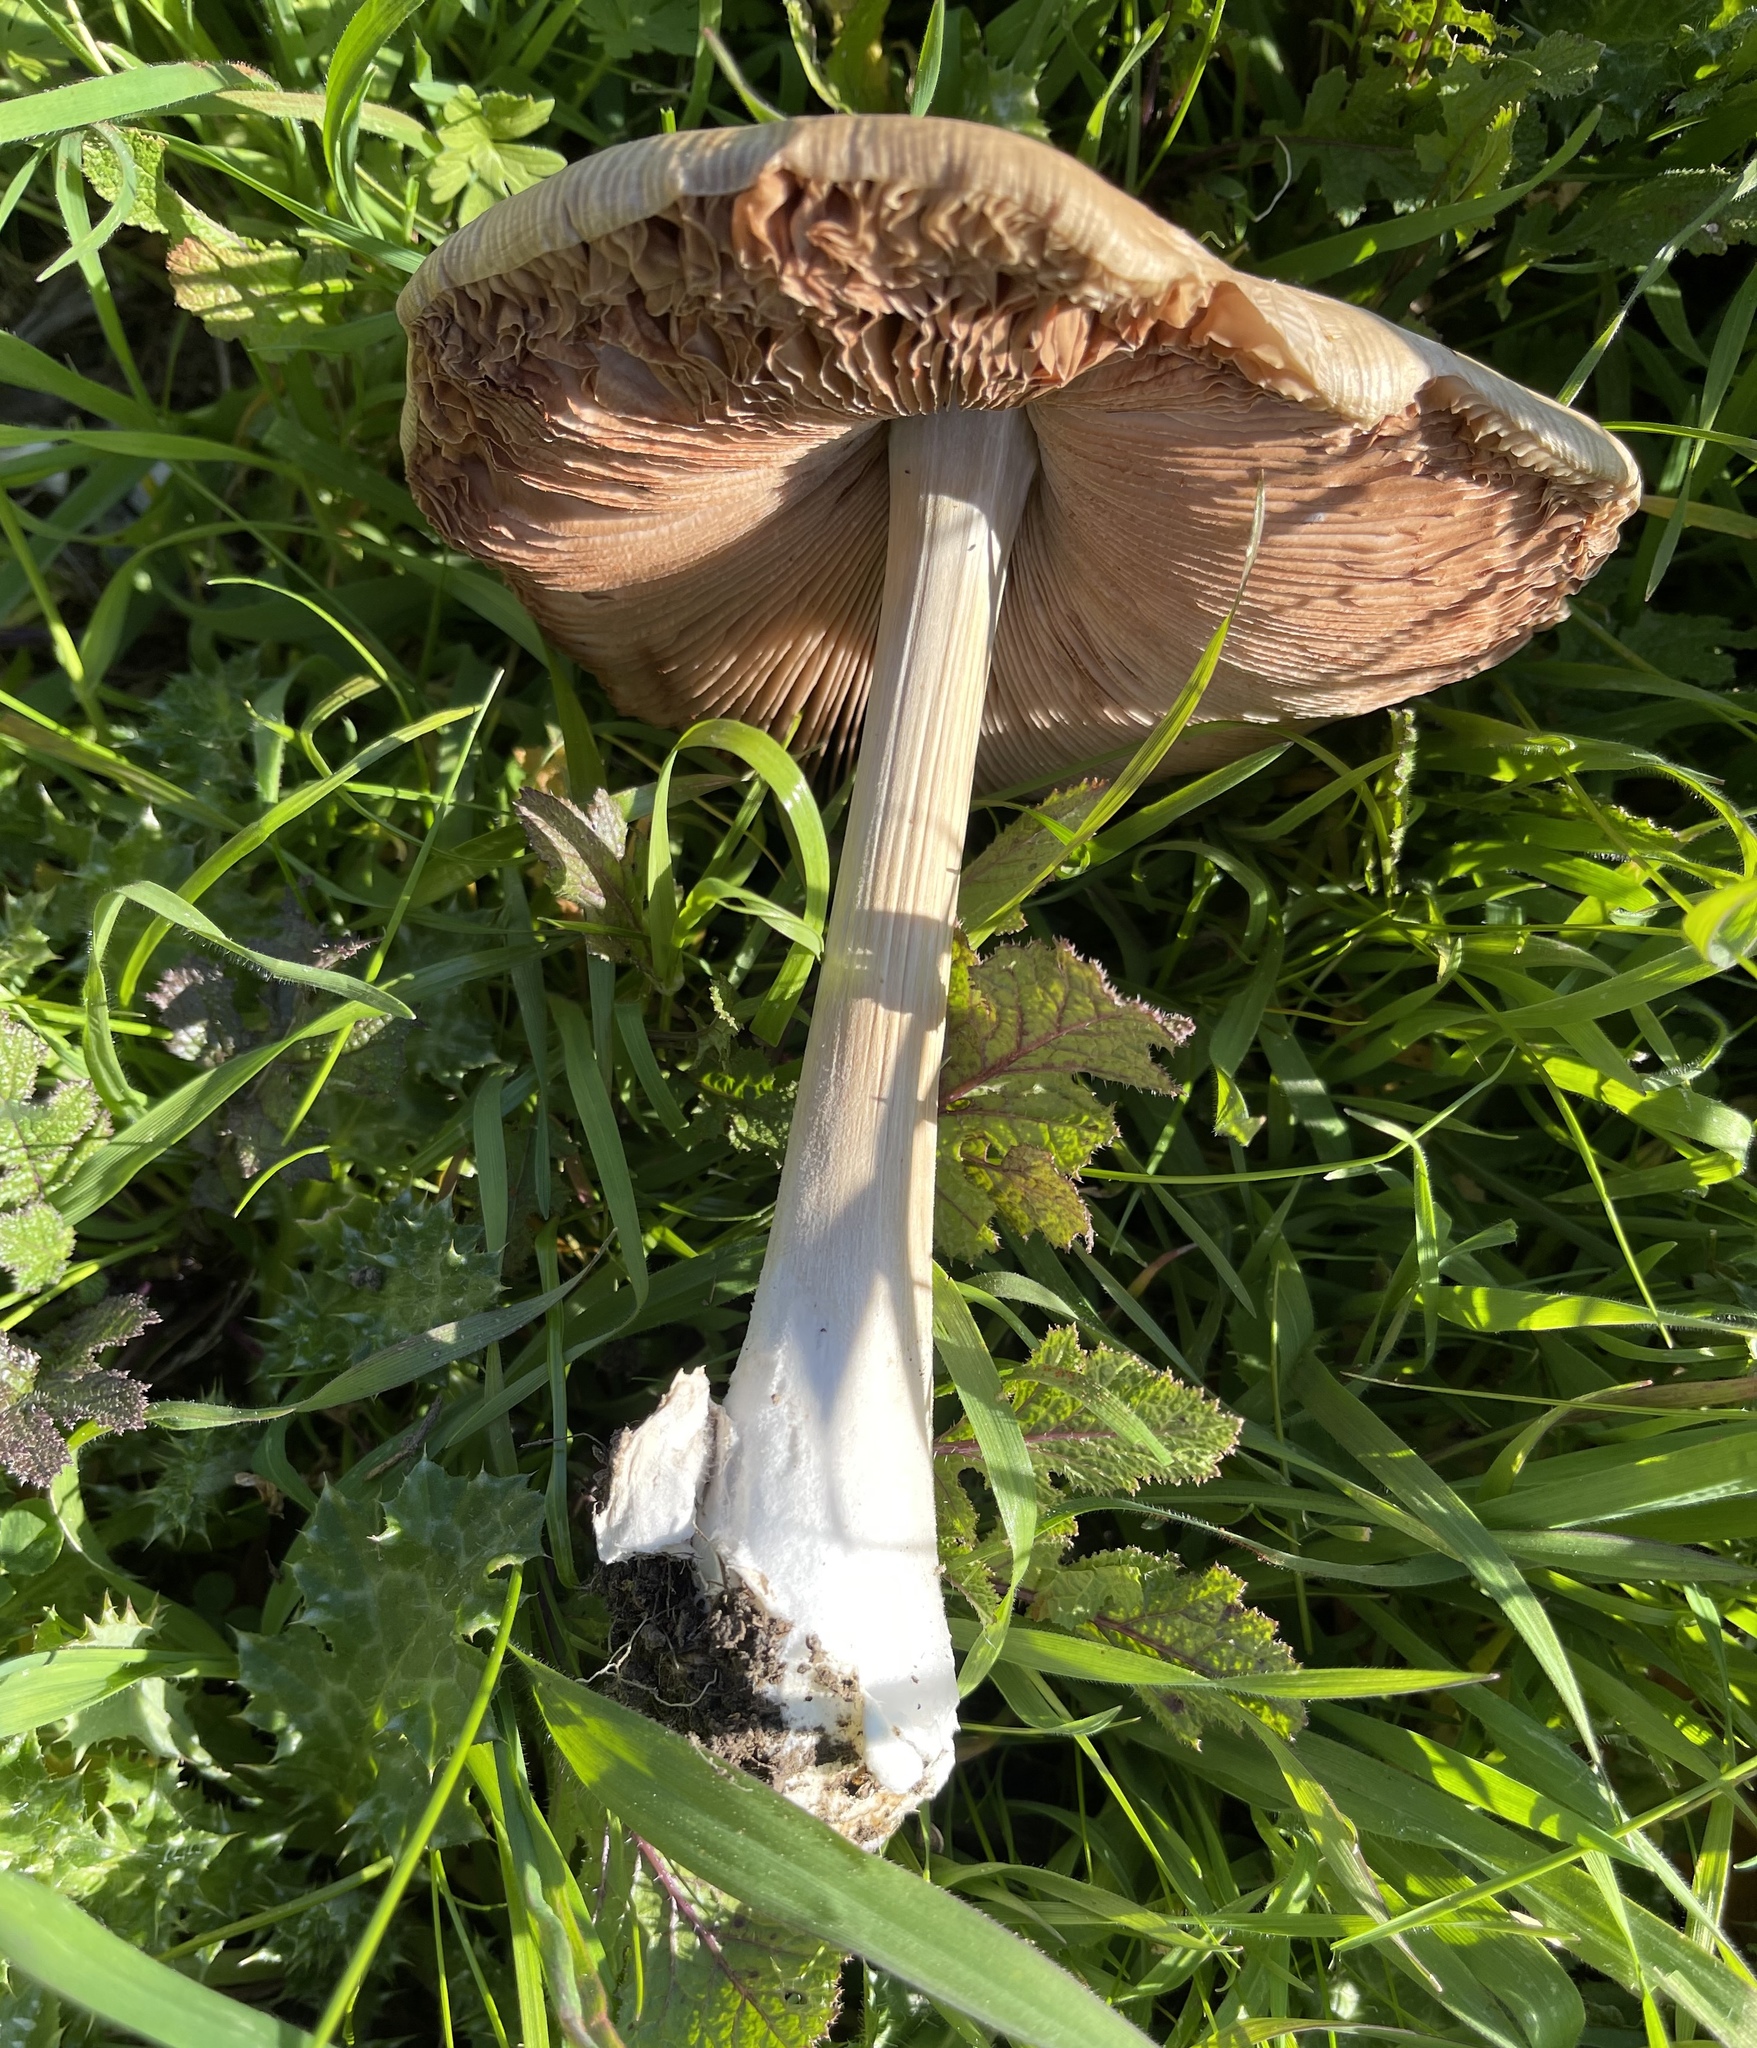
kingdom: Fungi
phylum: Basidiomycota
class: Agaricomycetes
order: Agaricales
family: Pluteaceae
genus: Volvopluteus
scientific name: Volvopluteus gloiocephalus
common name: Stubble rosegill
